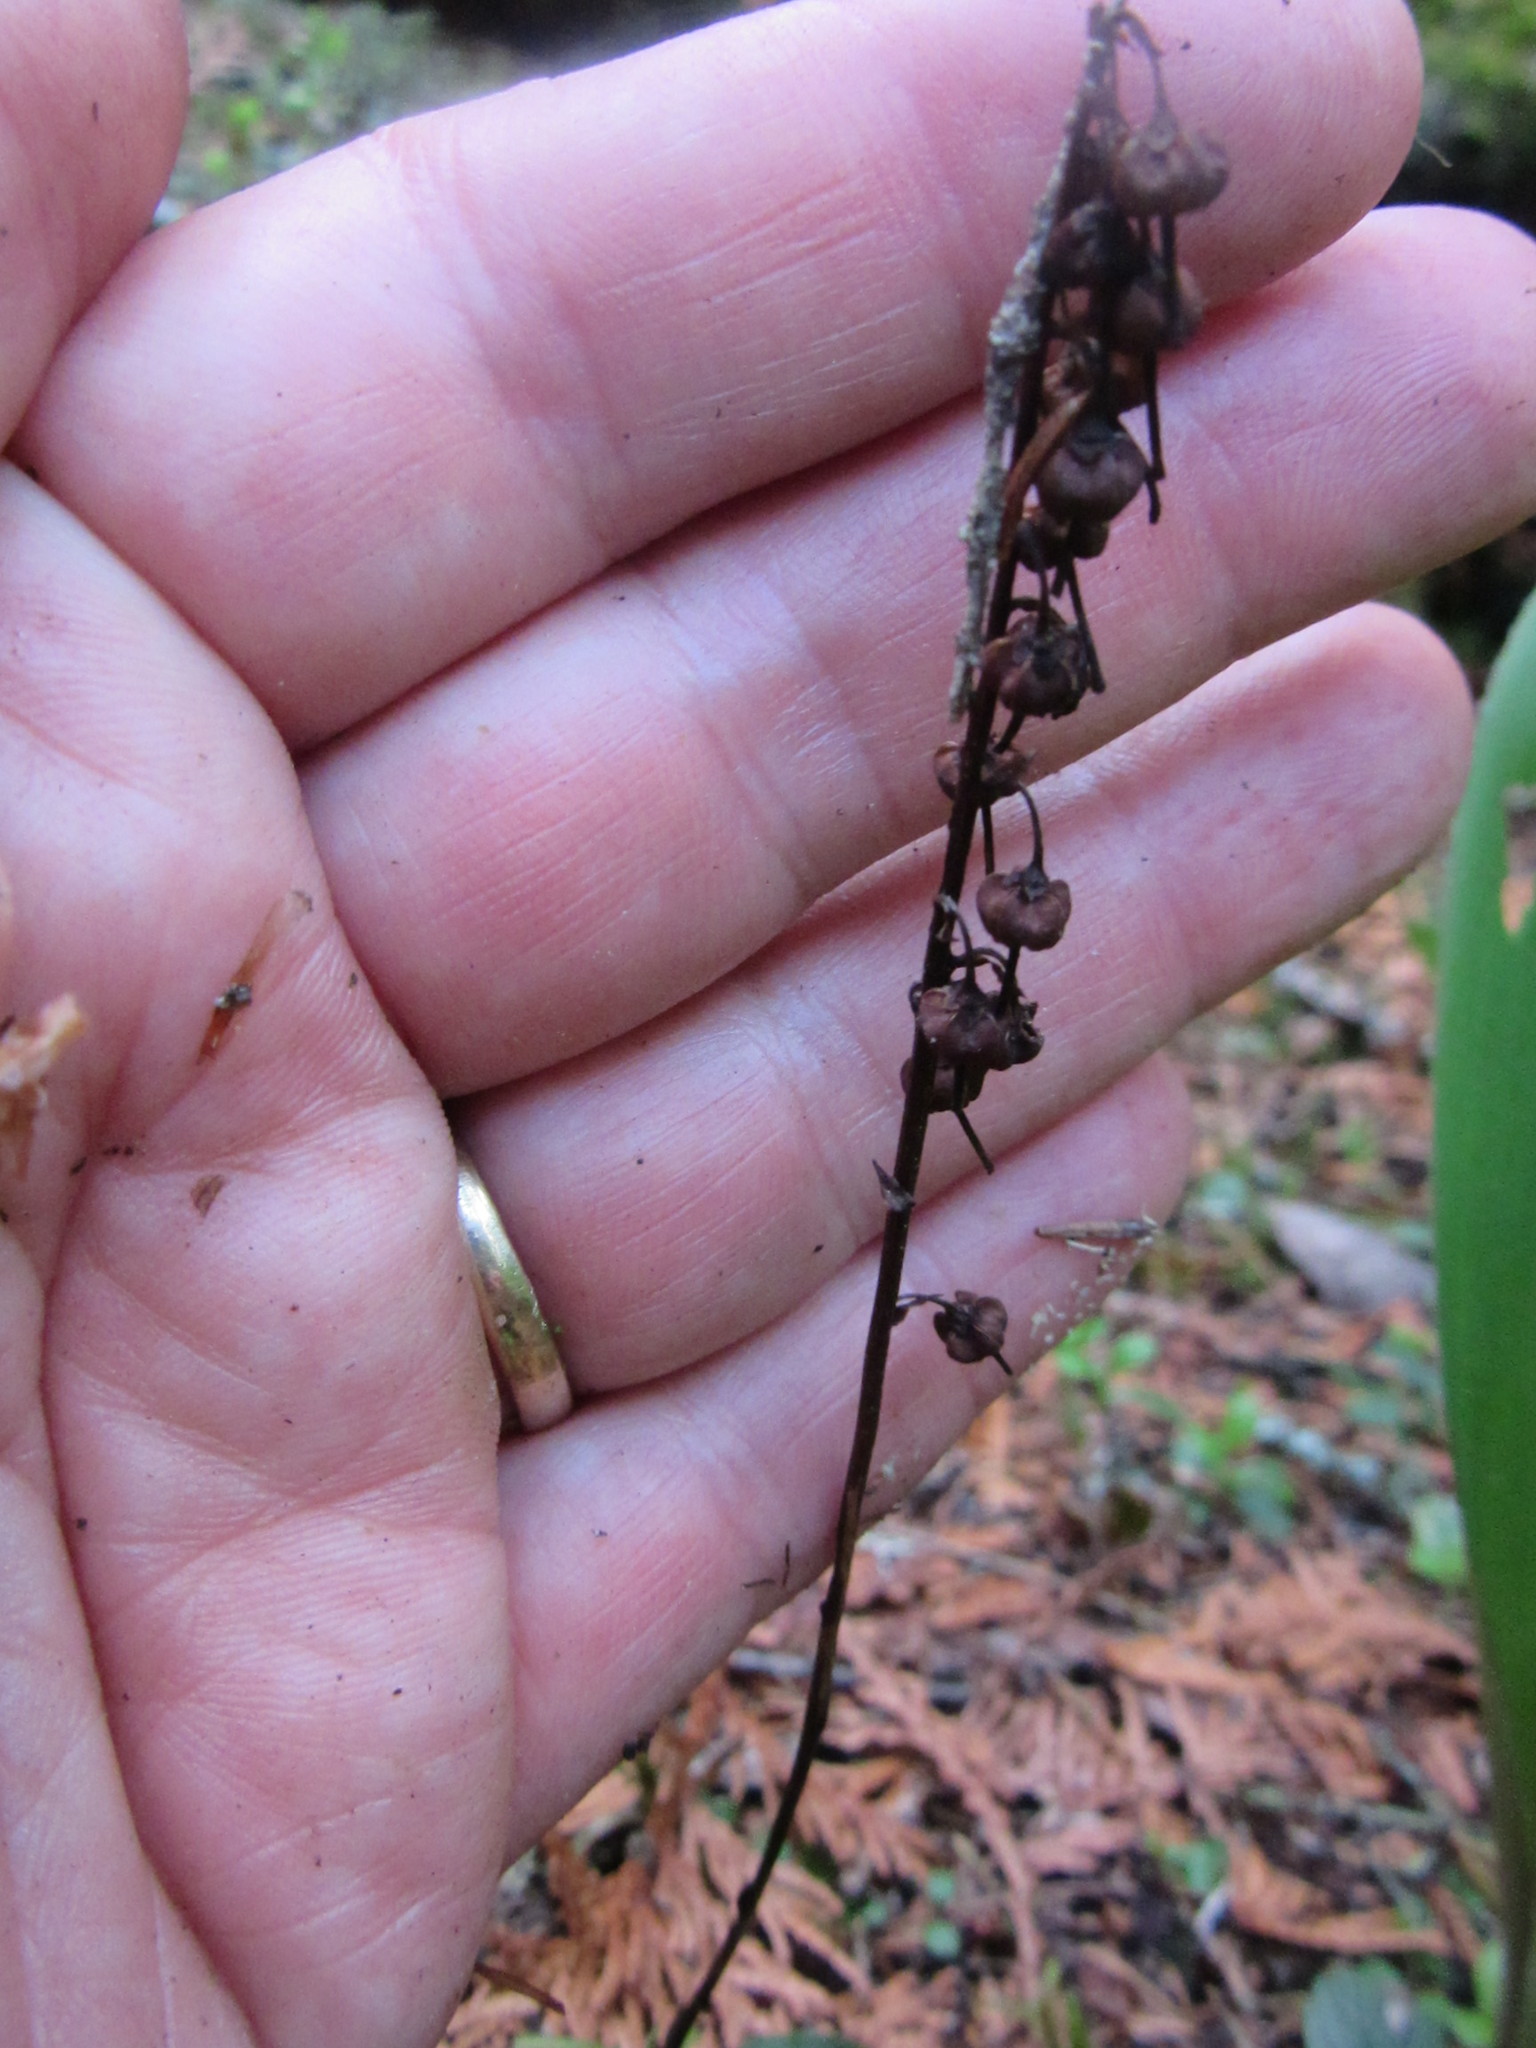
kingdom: Plantae
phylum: Tracheophyta
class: Magnoliopsida
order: Ericales
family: Ericaceae
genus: Orthilia
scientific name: Orthilia secunda
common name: One-sided orthilia
